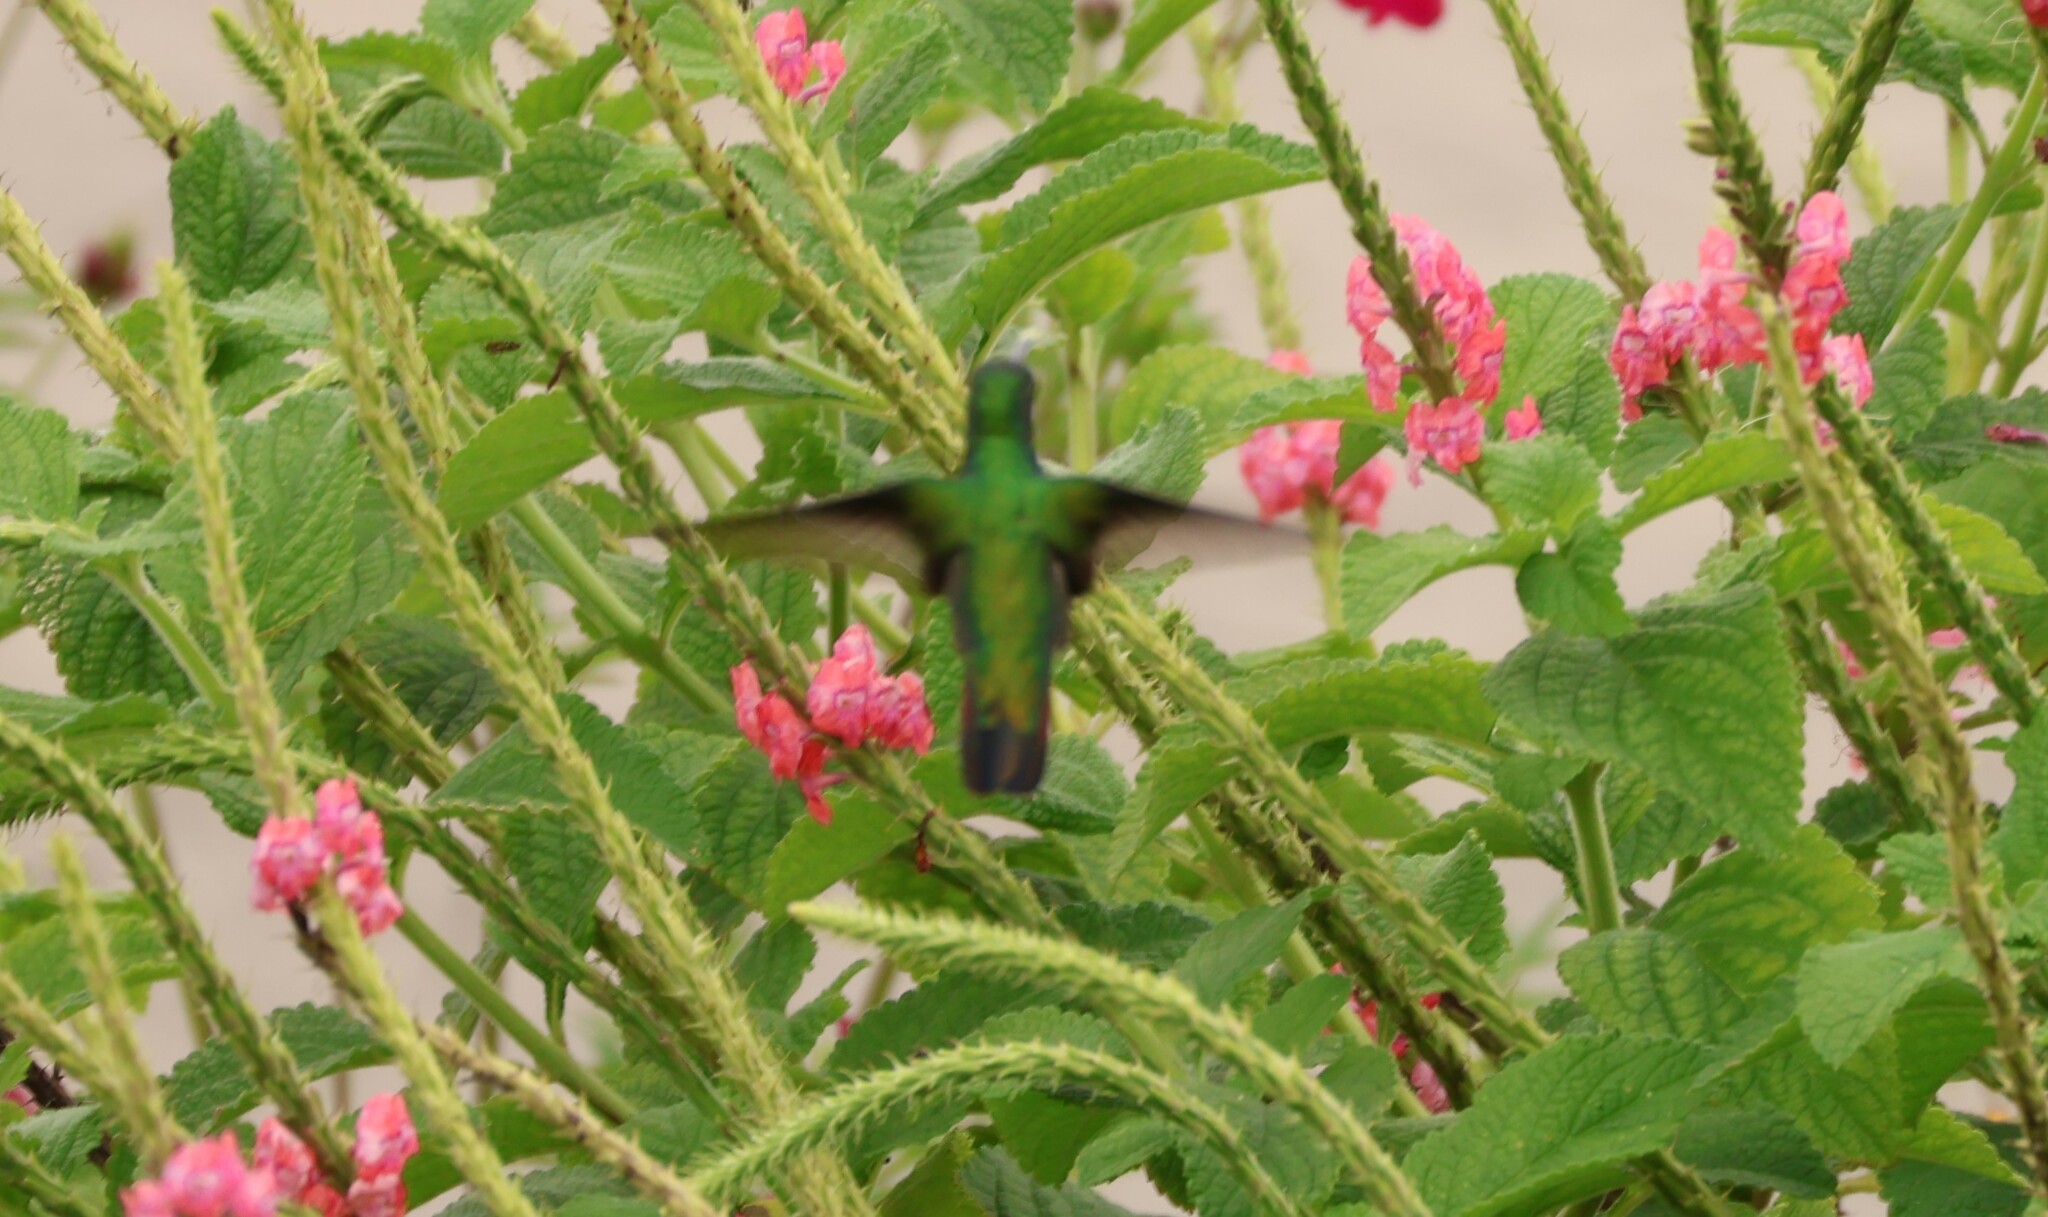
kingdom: Animalia
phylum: Chordata
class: Aves
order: Apodiformes
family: Trochilidae
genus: Anthracothorax
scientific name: Anthracothorax prevostii
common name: Green-breasted mango
